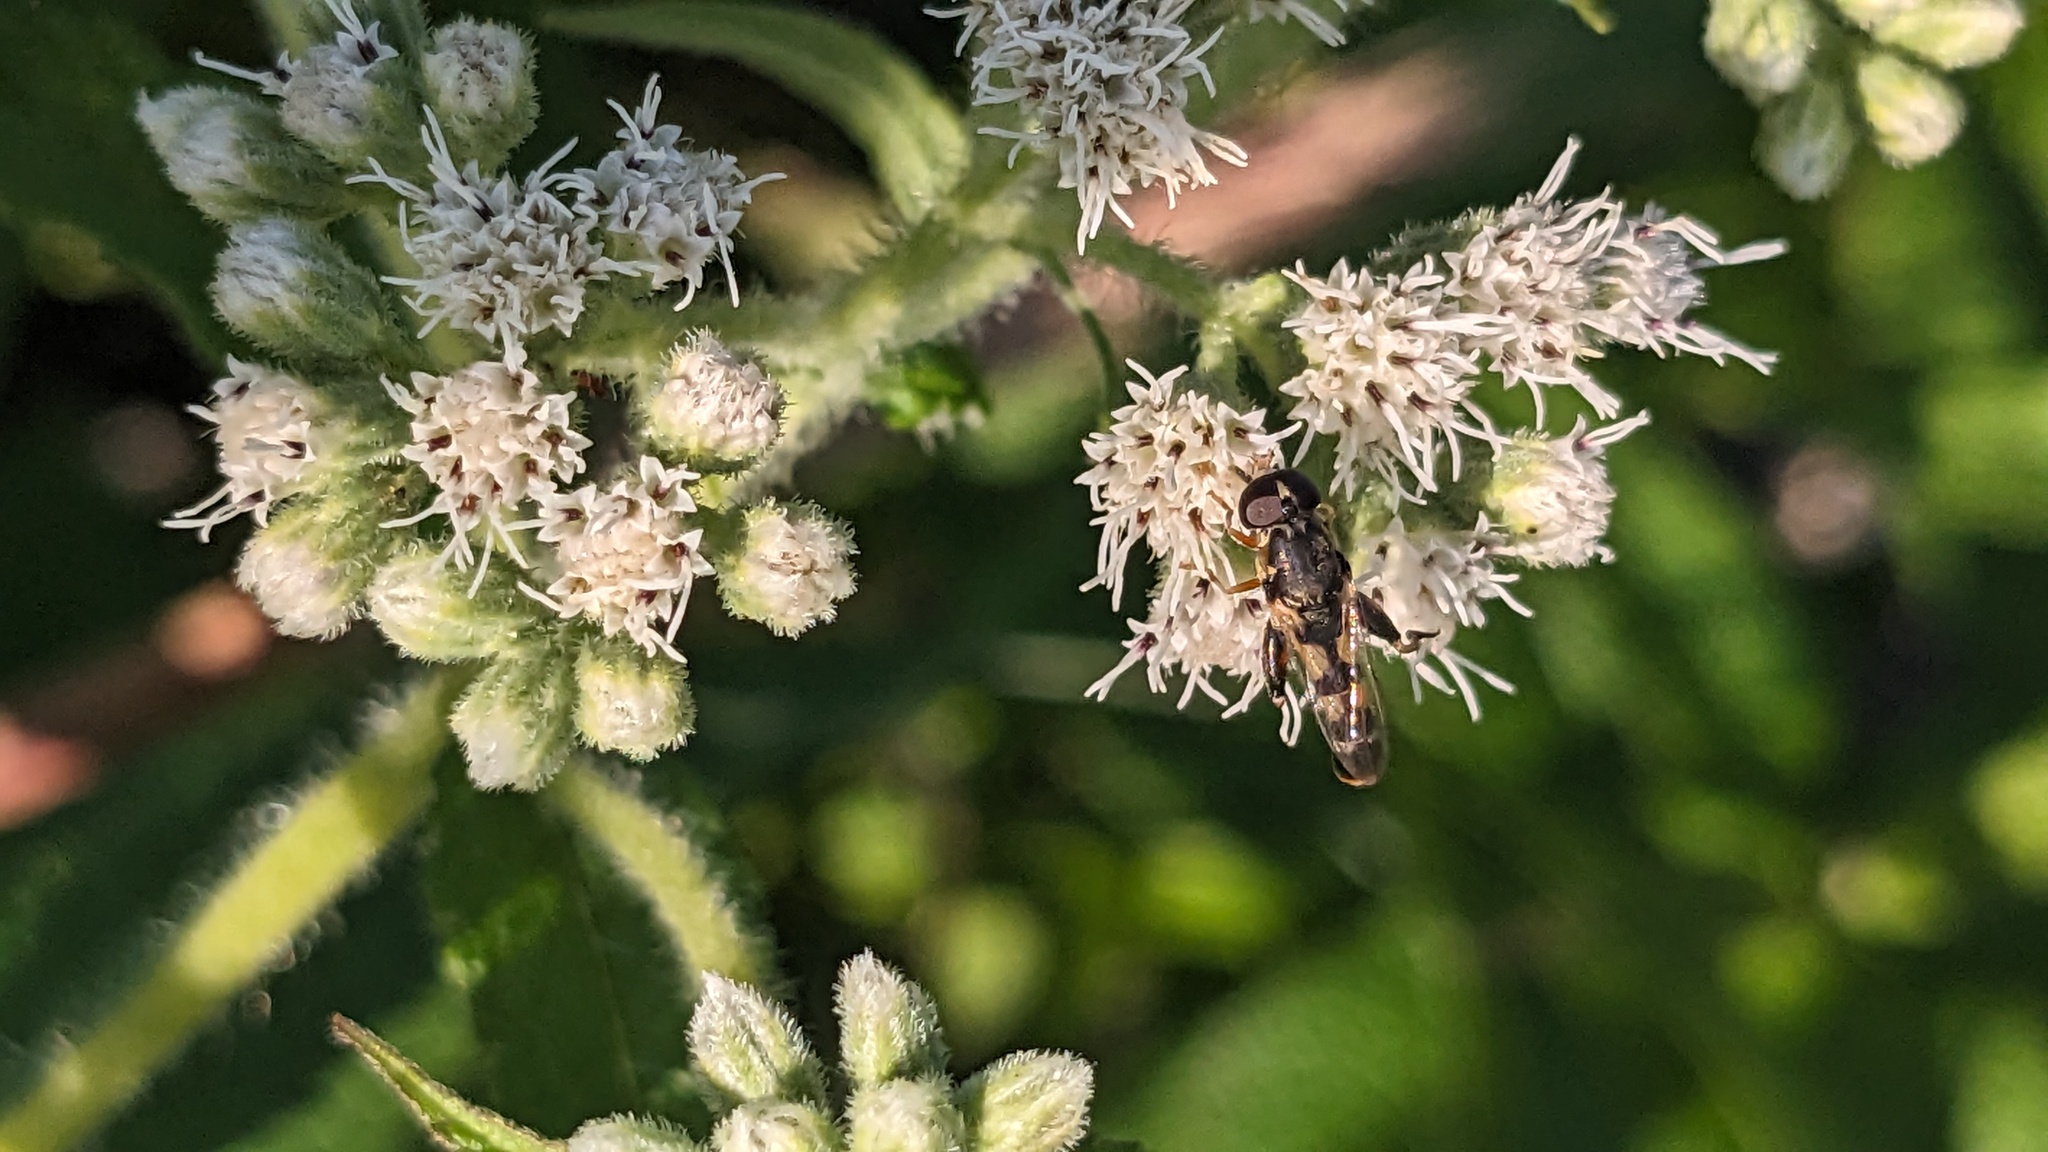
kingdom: Animalia
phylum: Arthropoda
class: Insecta
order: Diptera
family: Syrphidae
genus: Syritta
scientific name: Syritta pipiens
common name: Hover fly
